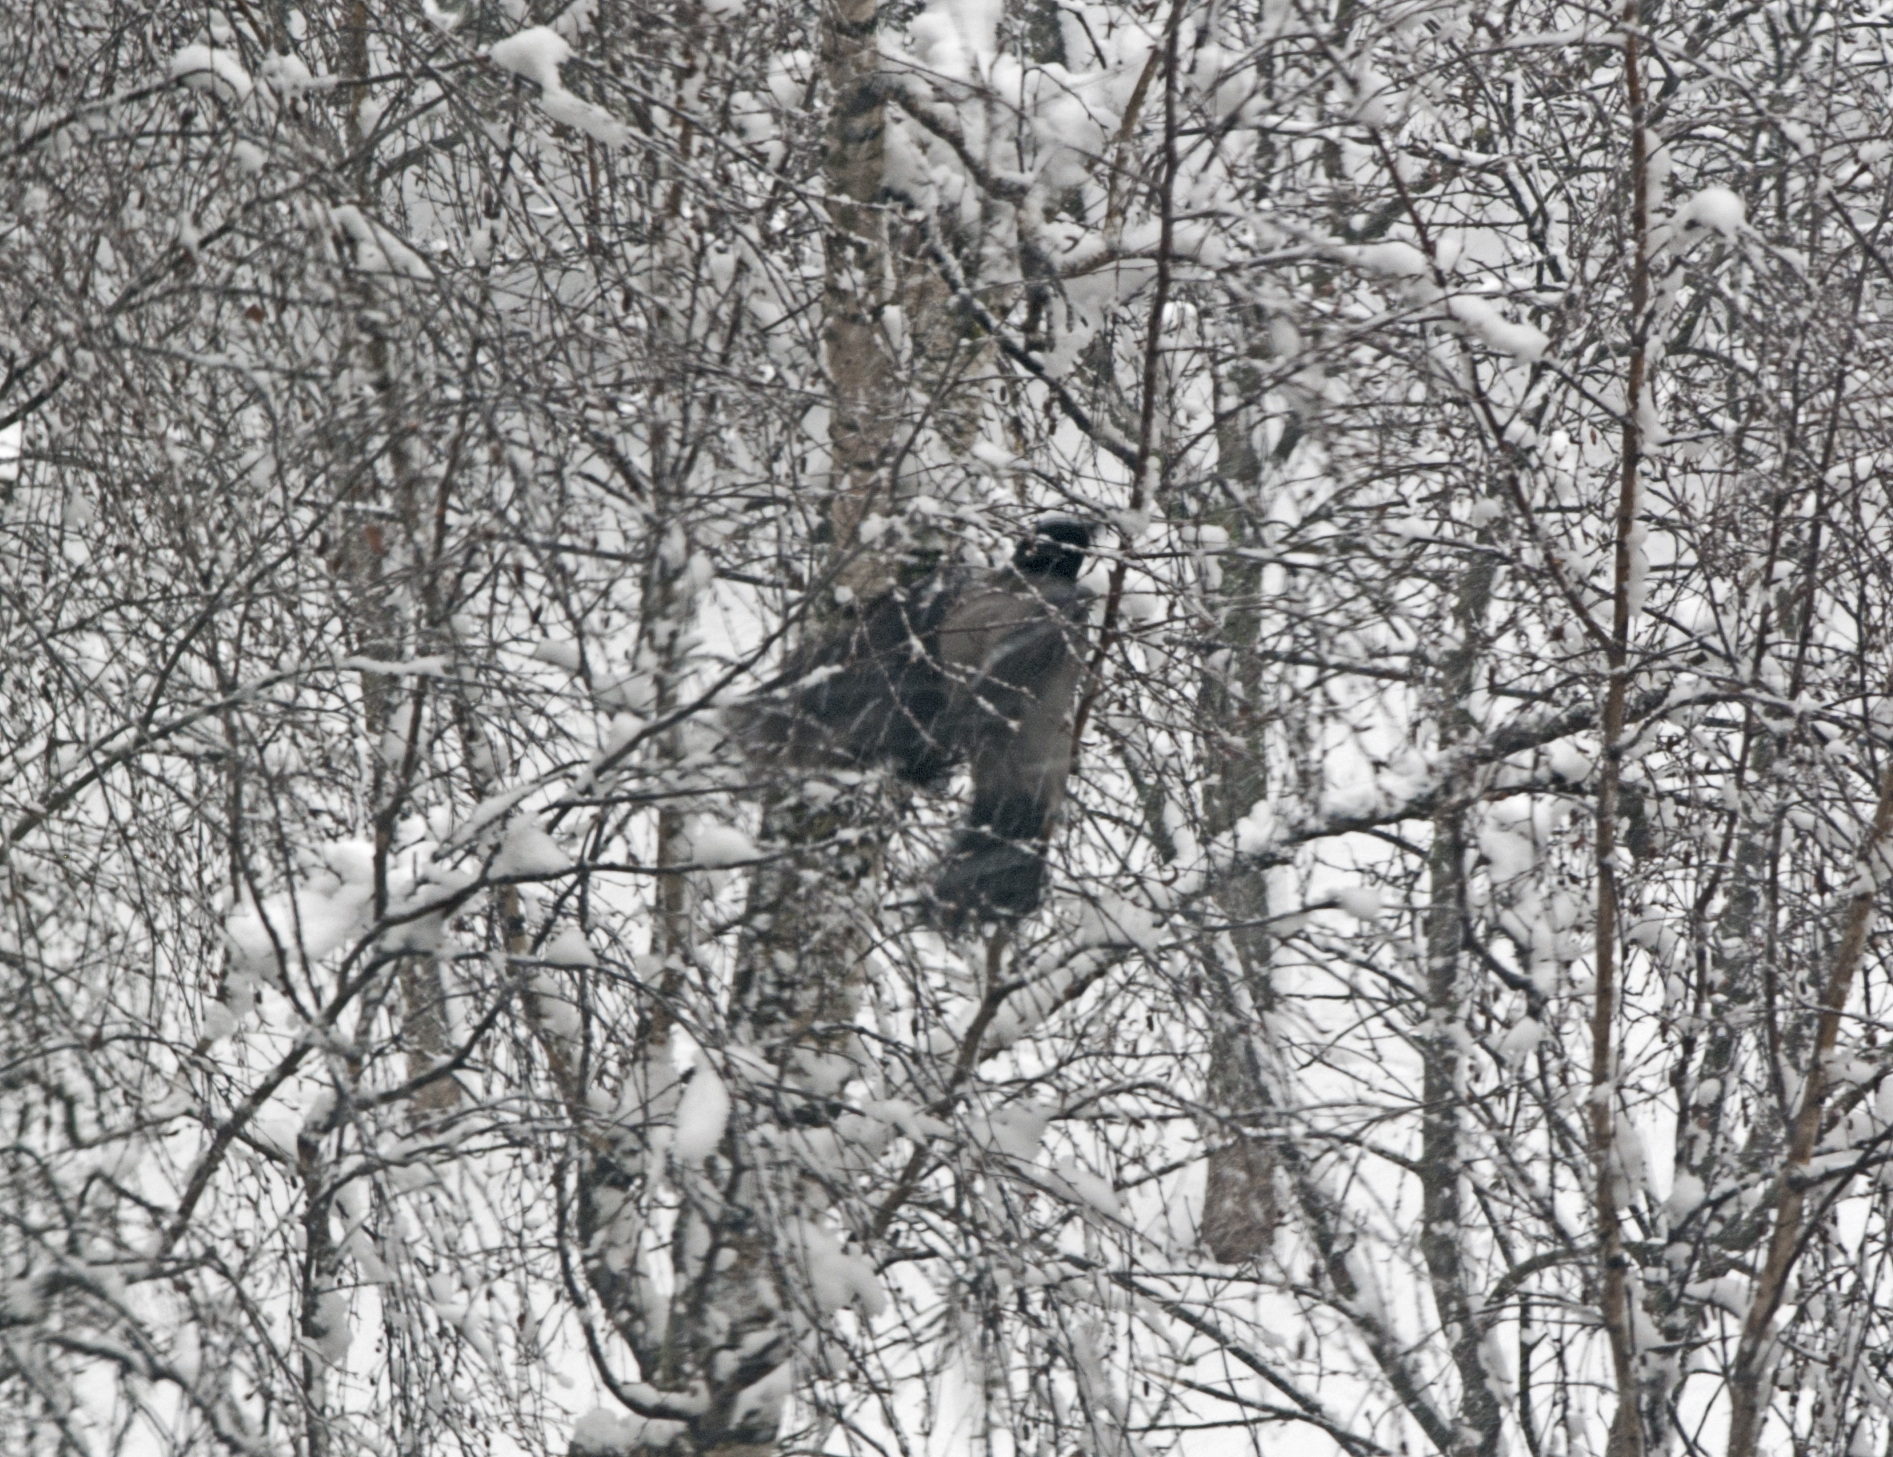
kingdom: Animalia
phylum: Chordata
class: Aves
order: Passeriformes
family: Corvidae
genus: Corvus
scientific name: Corvus cornix
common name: Hooded crow
